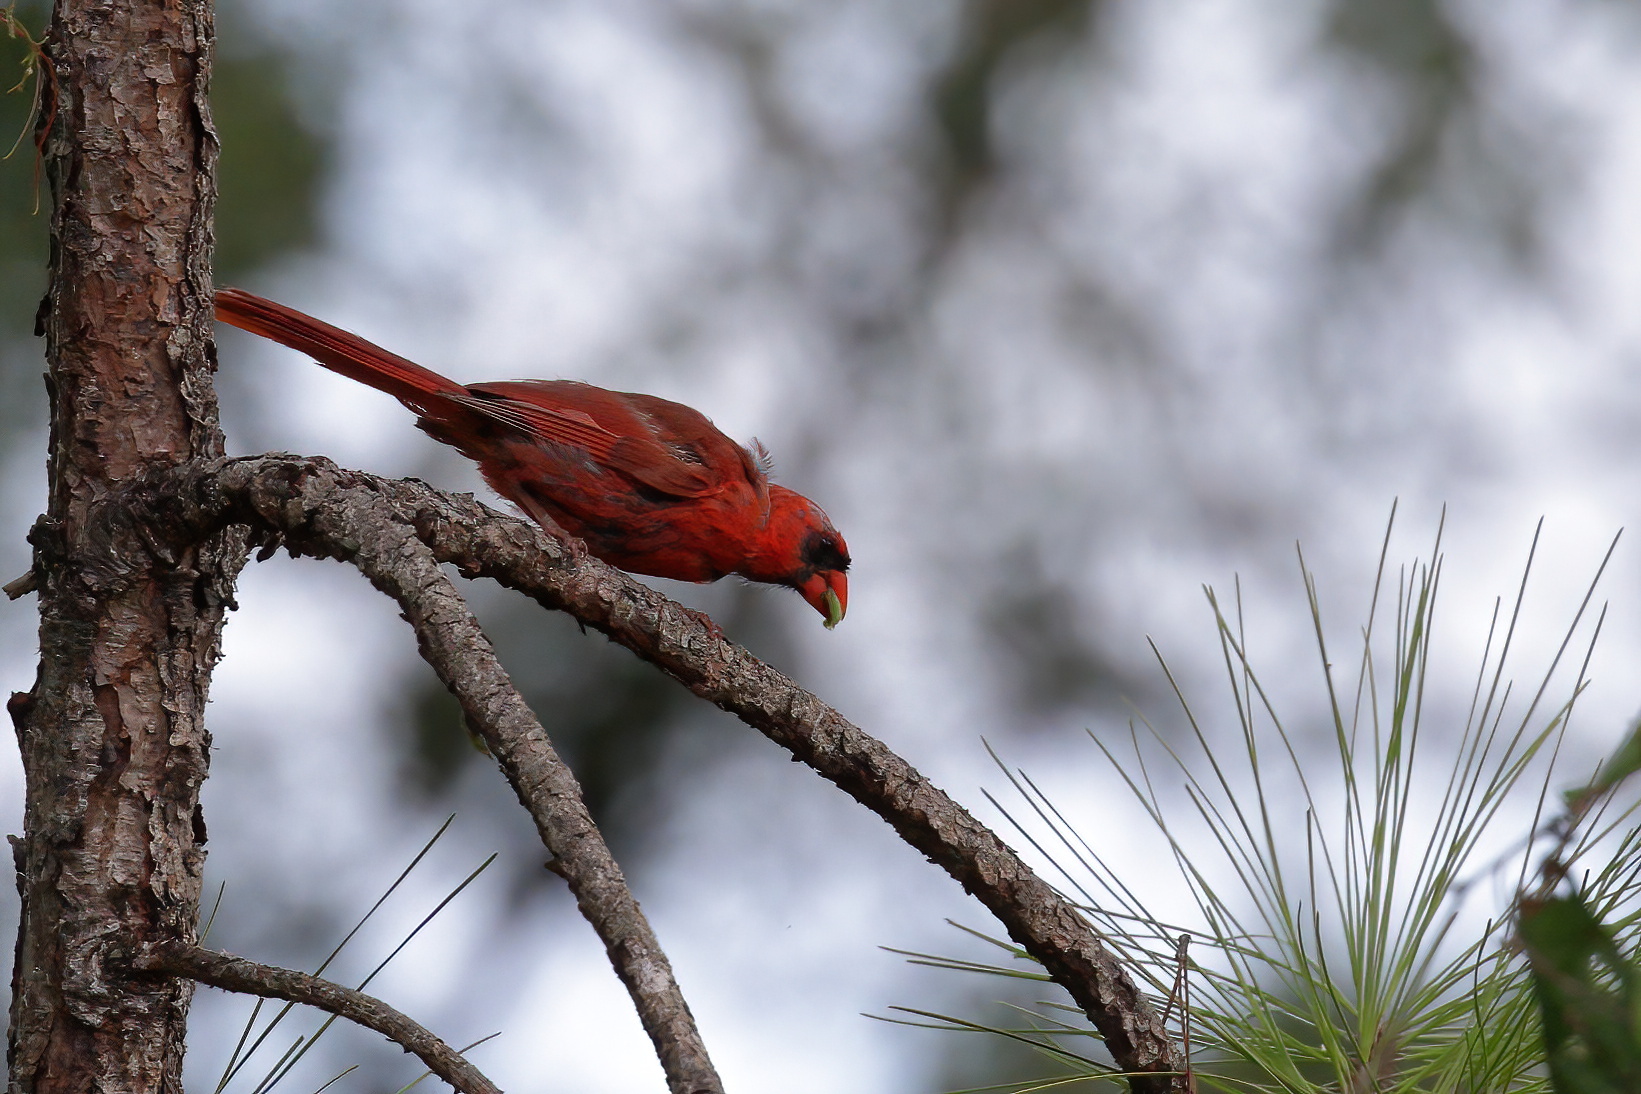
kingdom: Animalia
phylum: Chordata
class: Aves
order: Passeriformes
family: Cardinalidae
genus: Cardinalis
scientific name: Cardinalis cardinalis
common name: Northern cardinal
